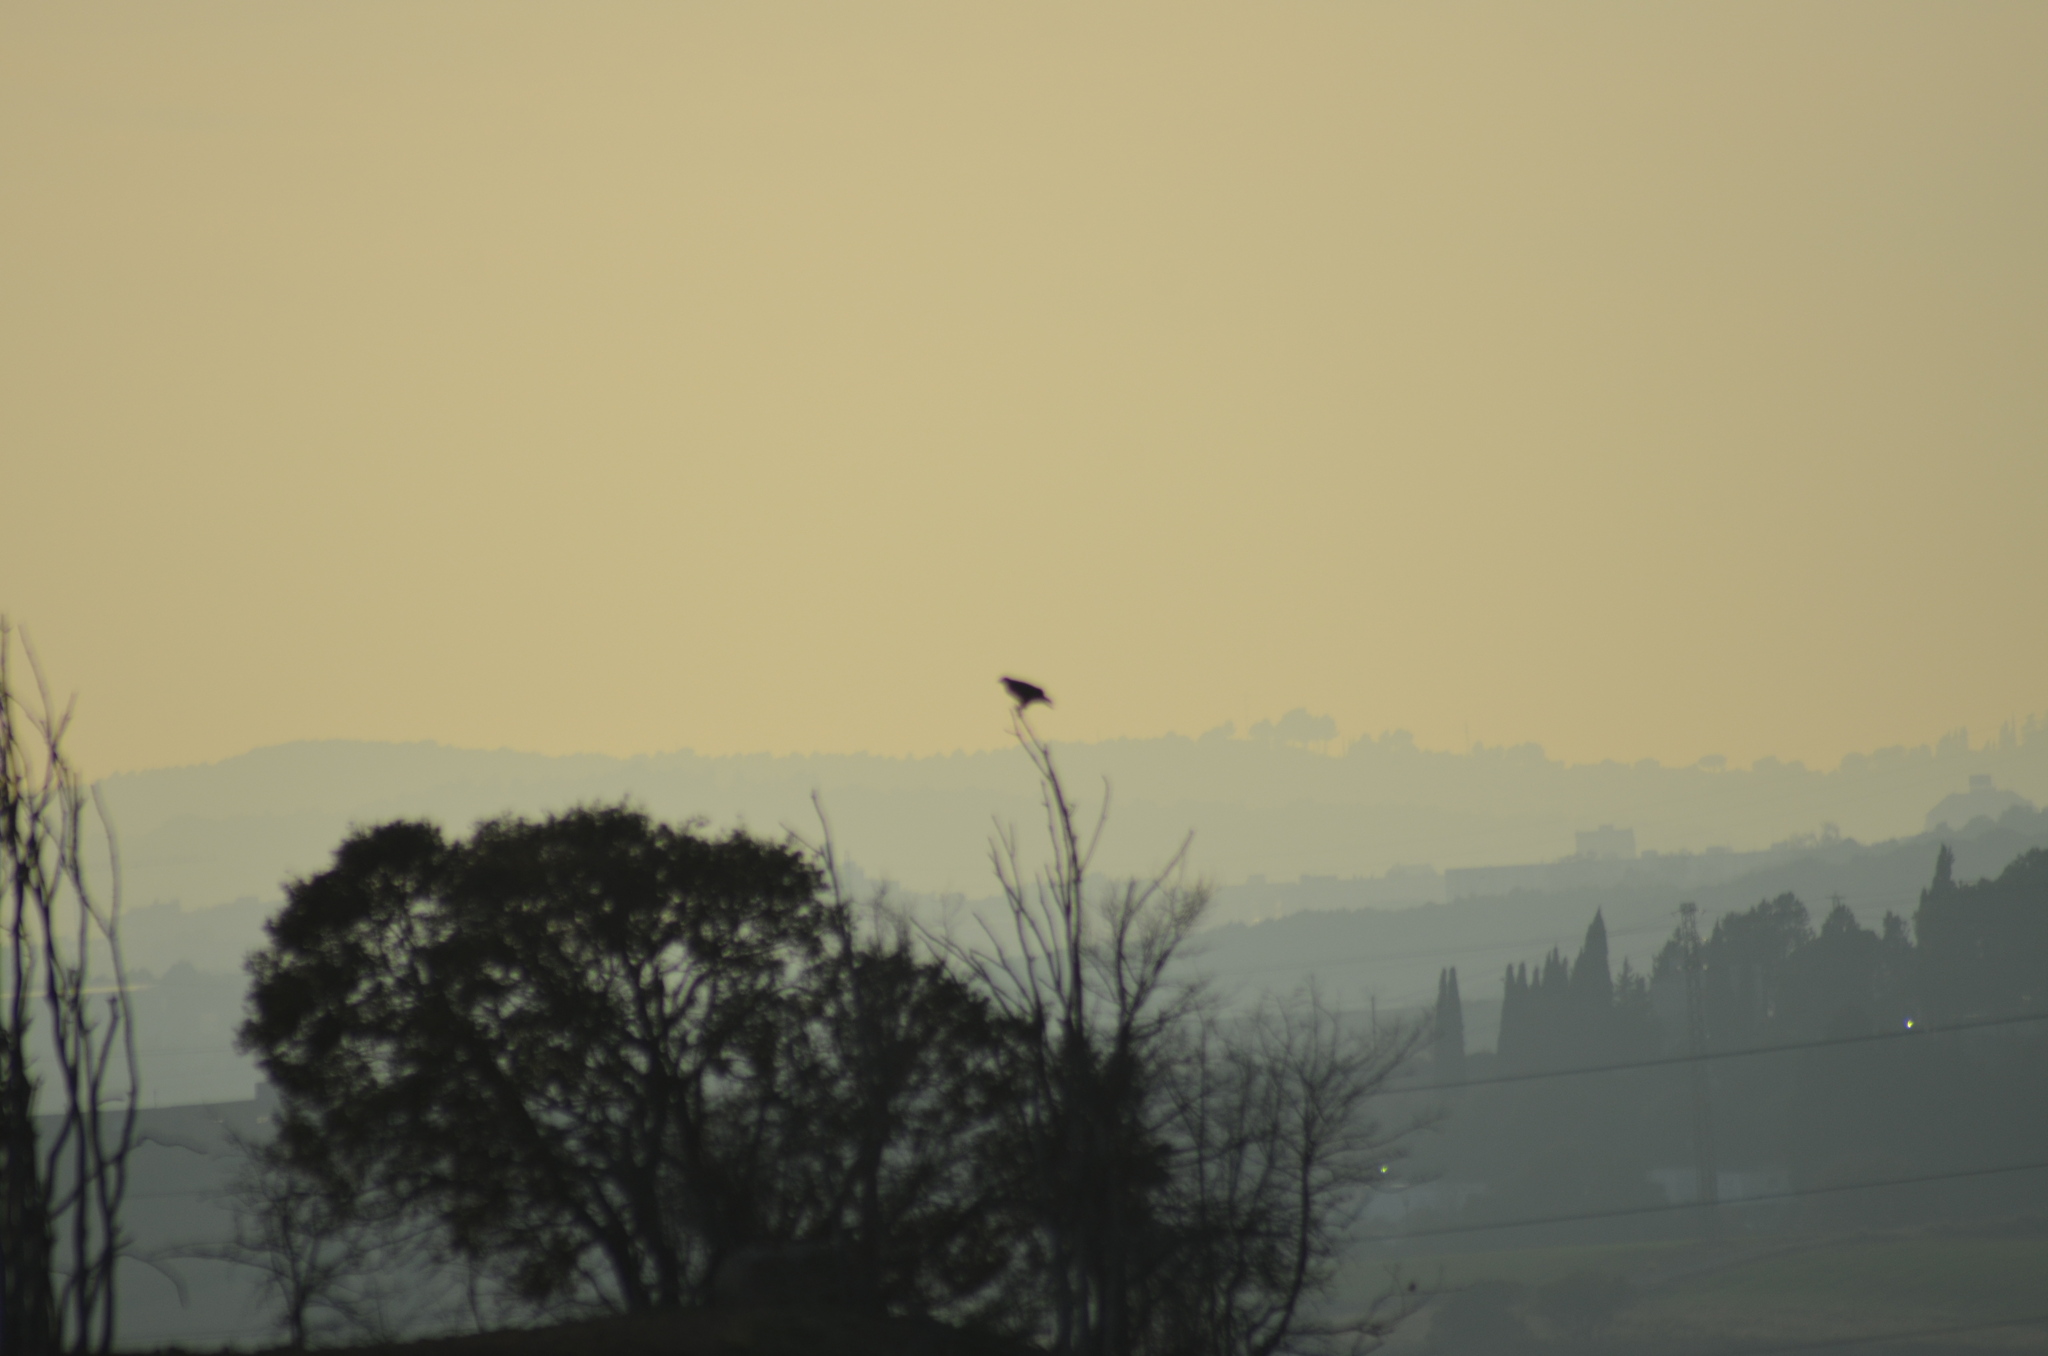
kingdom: Animalia
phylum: Chordata
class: Aves
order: Accipitriformes
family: Accipitridae
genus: Buteo
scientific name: Buteo buteo
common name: Common buzzard
